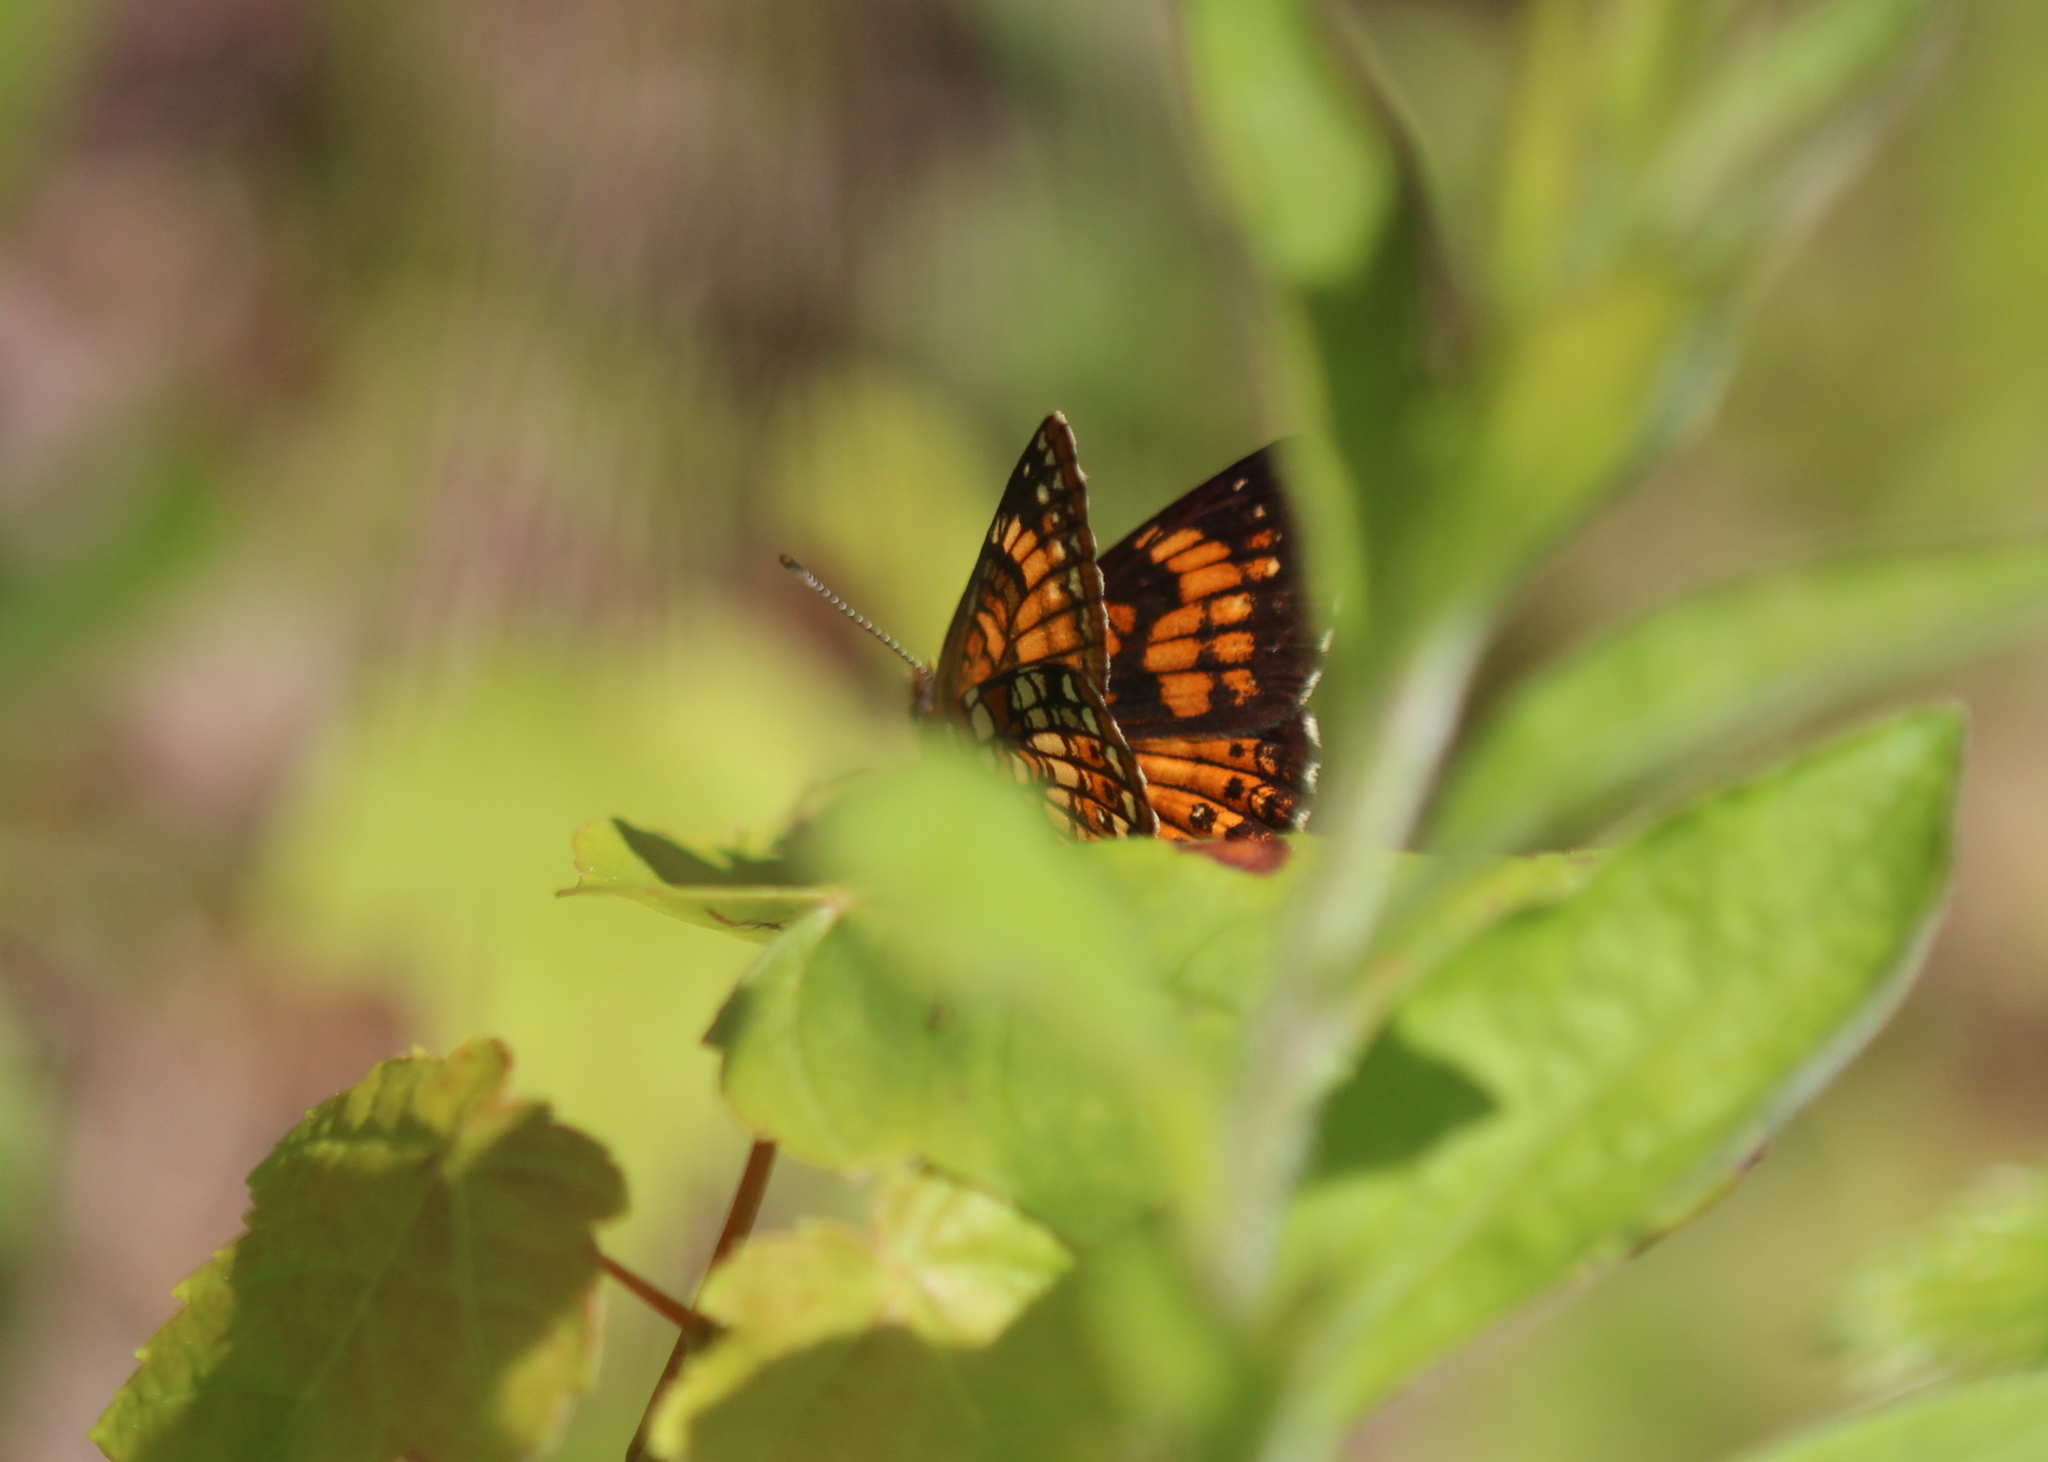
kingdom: Animalia
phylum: Arthropoda
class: Insecta
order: Lepidoptera
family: Nymphalidae
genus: Chlosyne
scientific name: Chlosyne harrisii
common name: Harris's checkerspot
